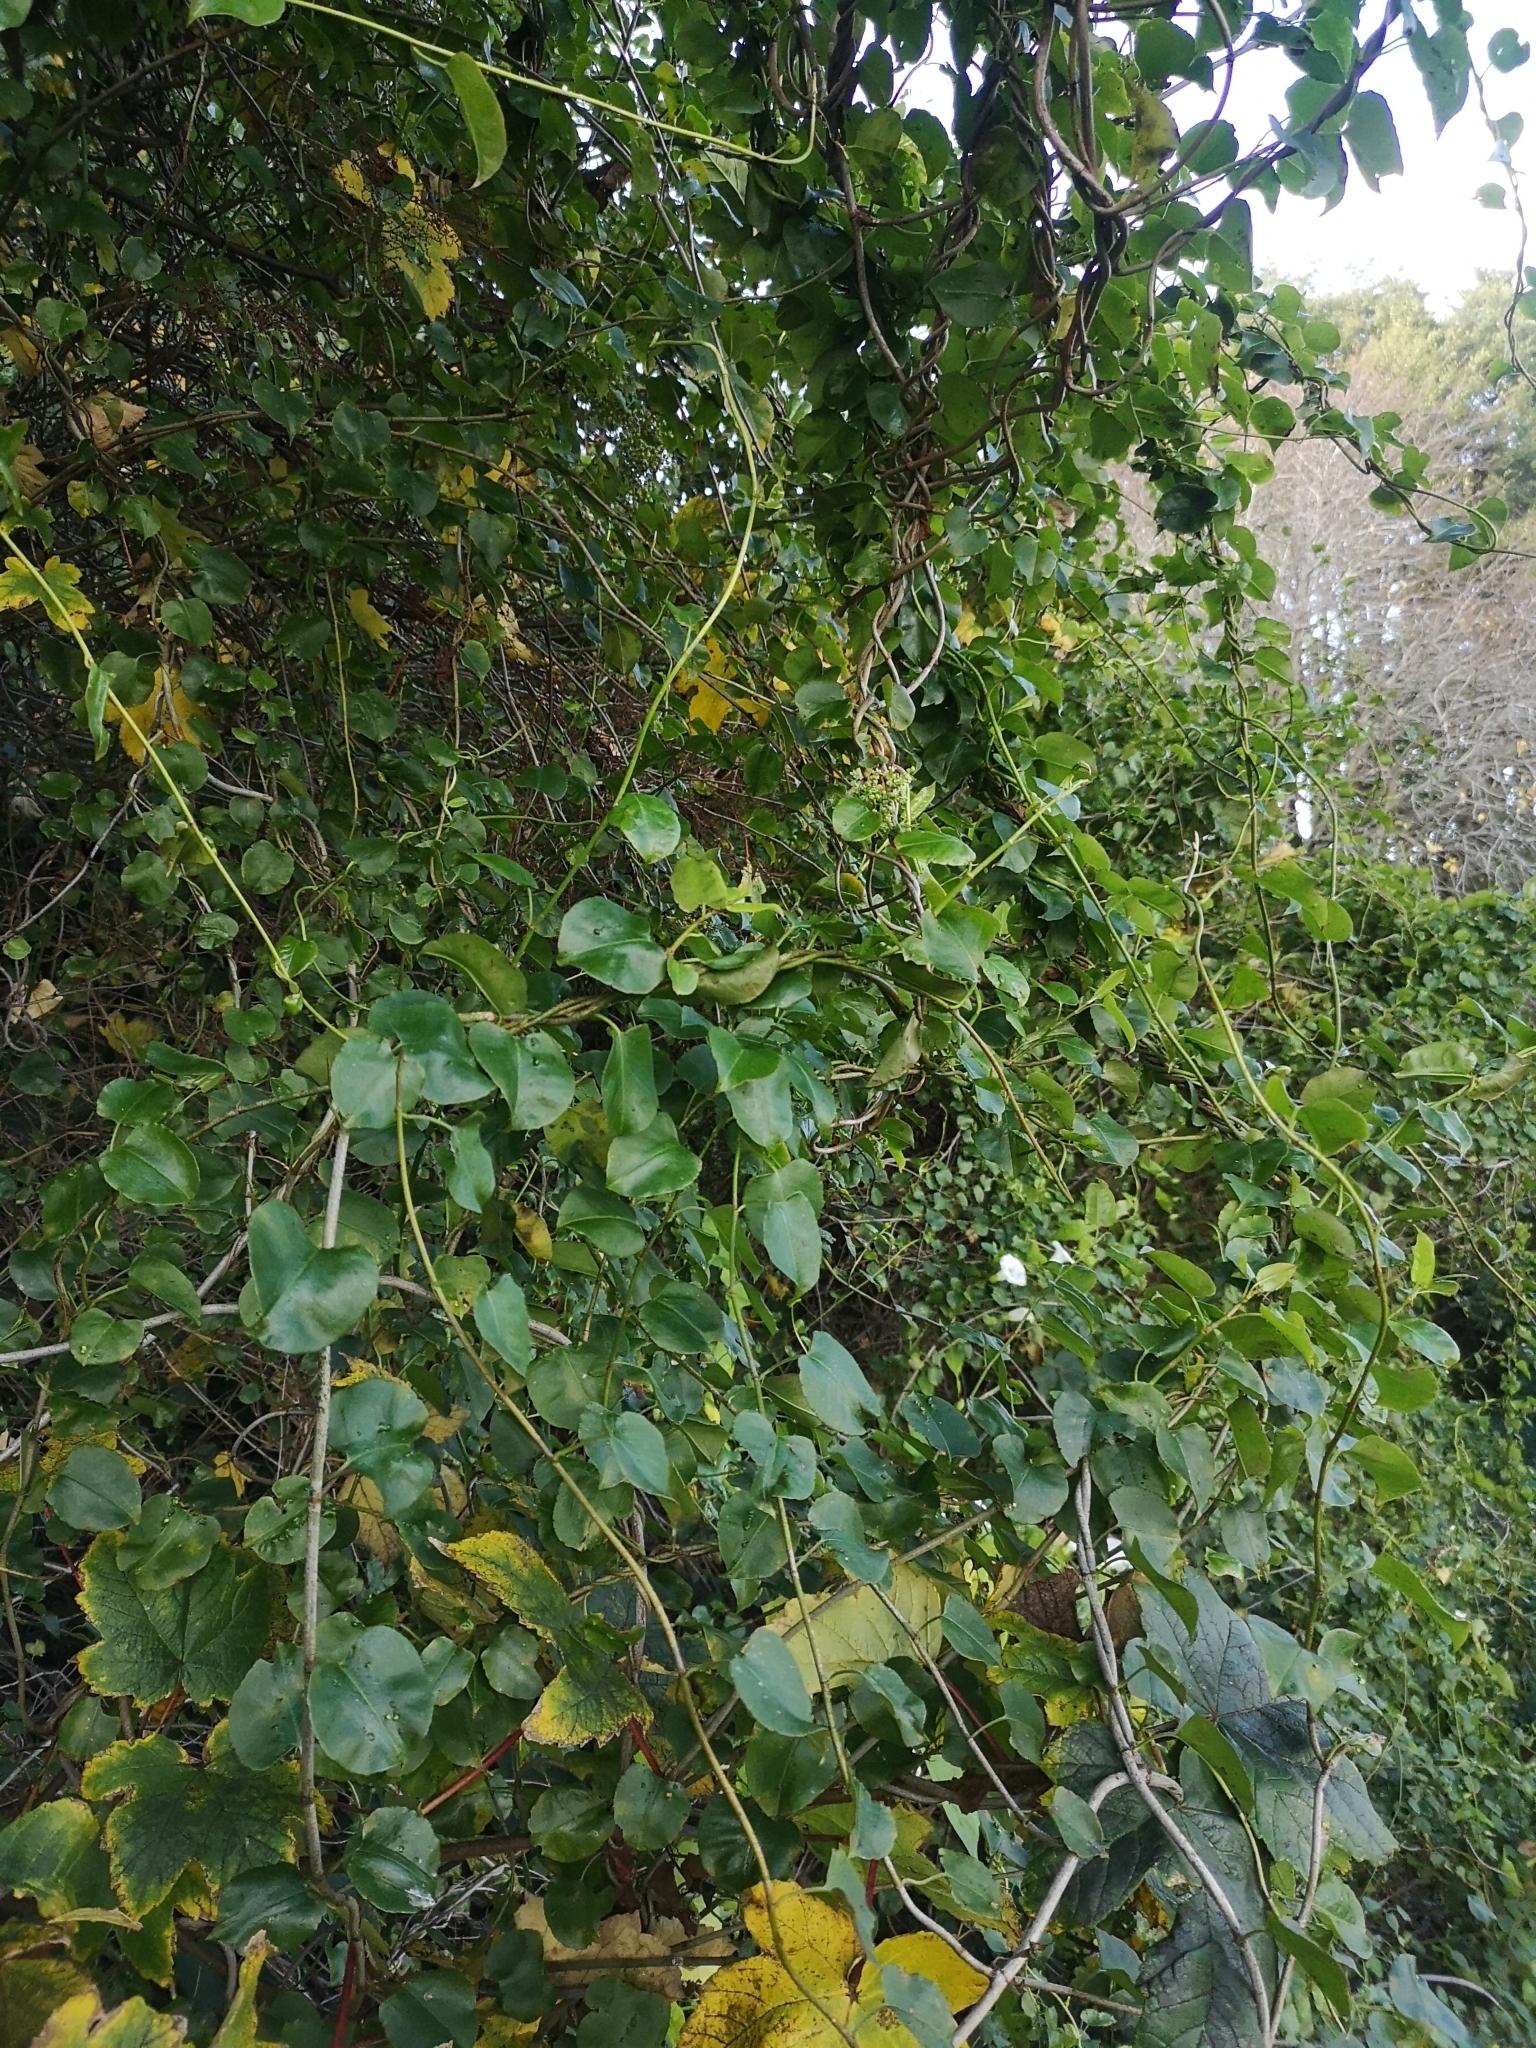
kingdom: Plantae
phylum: Tracheophyta
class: Magnoliopsida
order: Caryophyllales
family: Polygonaceae
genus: Muehlenbeckia
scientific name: Muehlenbeckia australis
